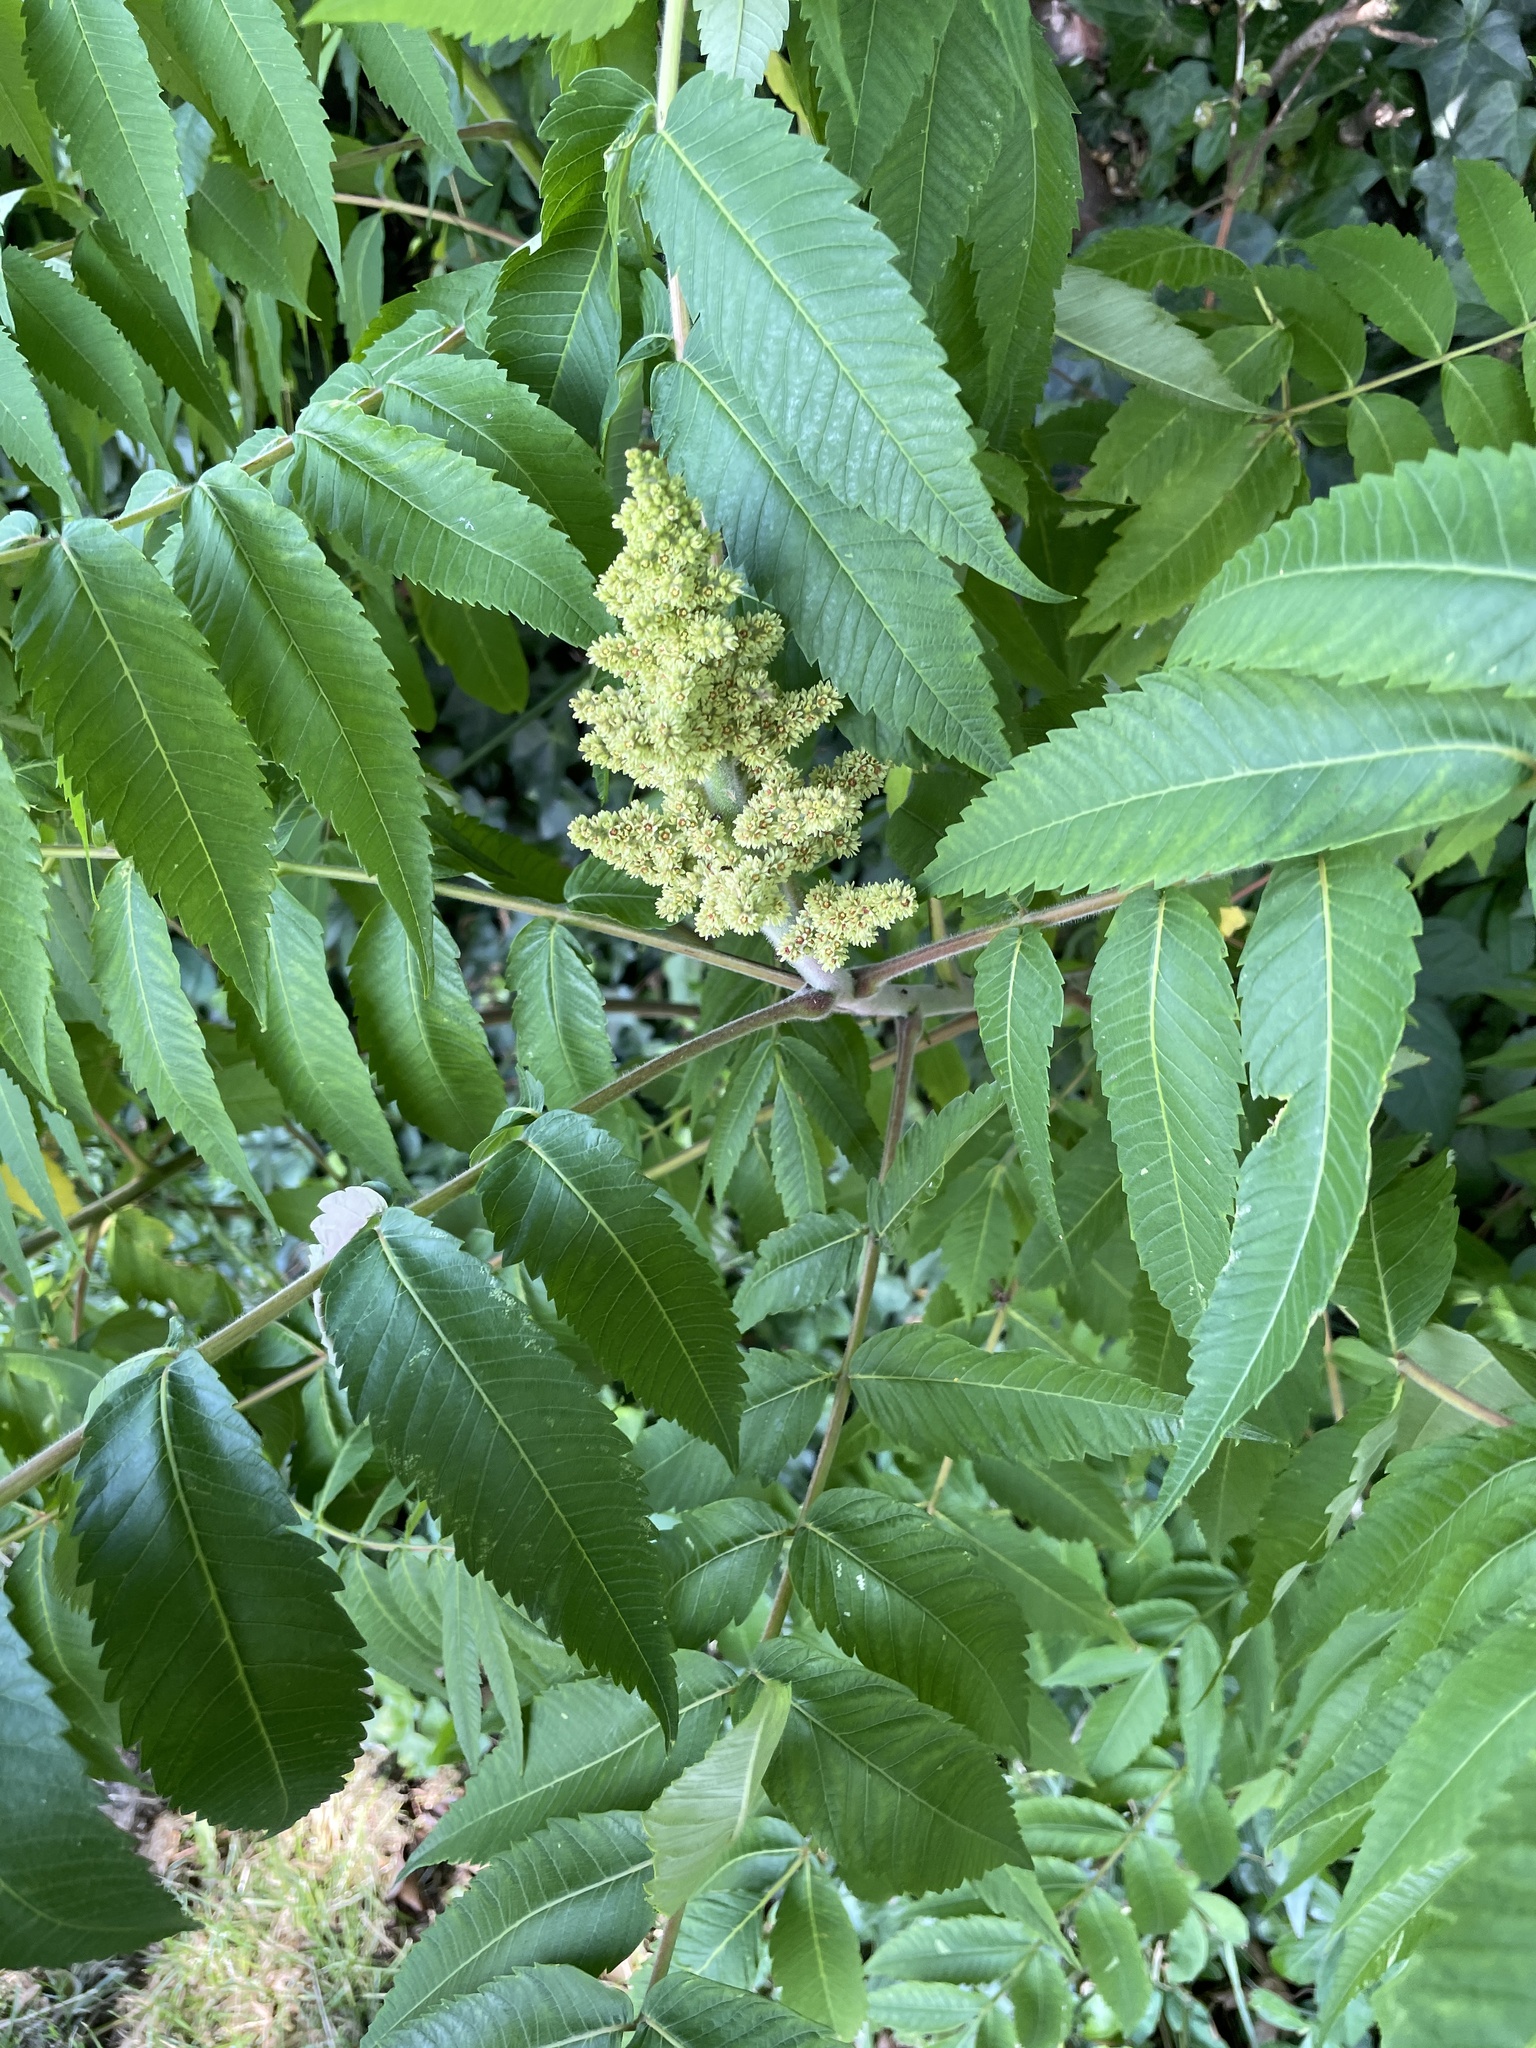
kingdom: Plantae
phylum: Tracheophyta
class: Magnoliopsida
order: Sapindales
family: Anacardiaceae
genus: Rhus
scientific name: Rhus typhina
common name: Staghorn sumac
